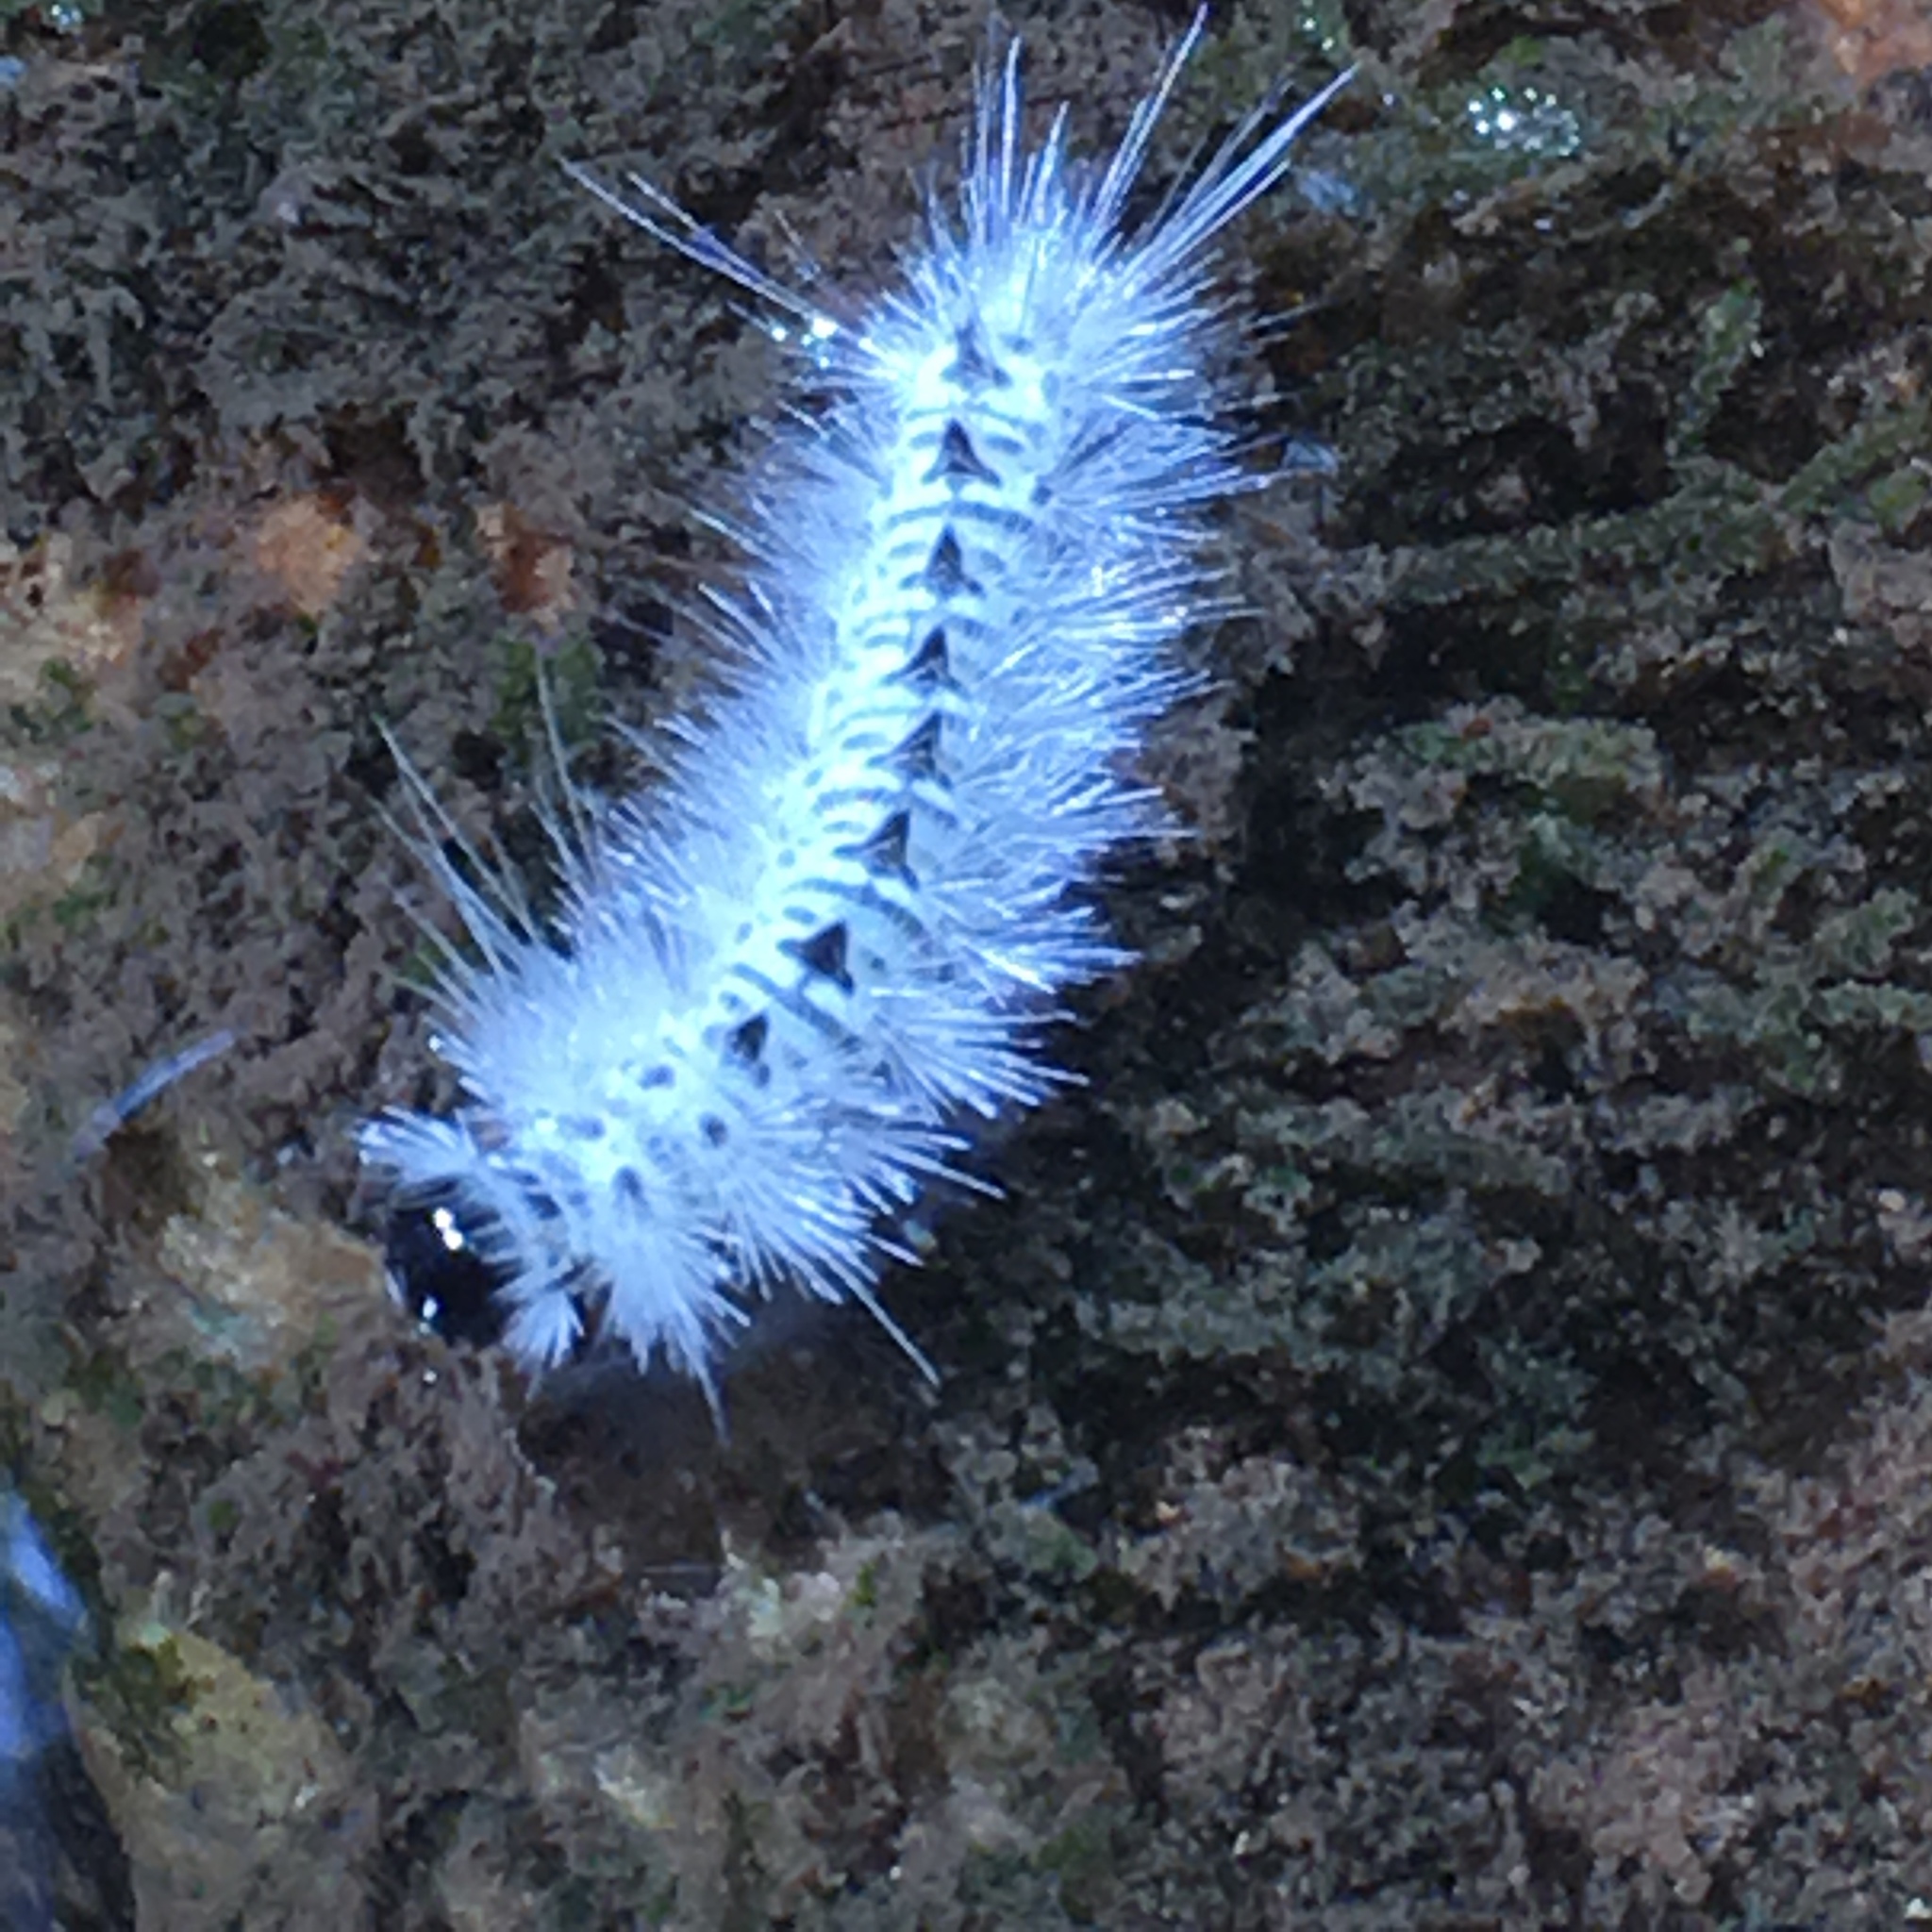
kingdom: Animalia
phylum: Arthropoda
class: Insecta
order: Lepidoptera
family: Erebidae
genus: Lophocampa
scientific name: Lophocampa caryae
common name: Hickory tussock moth
